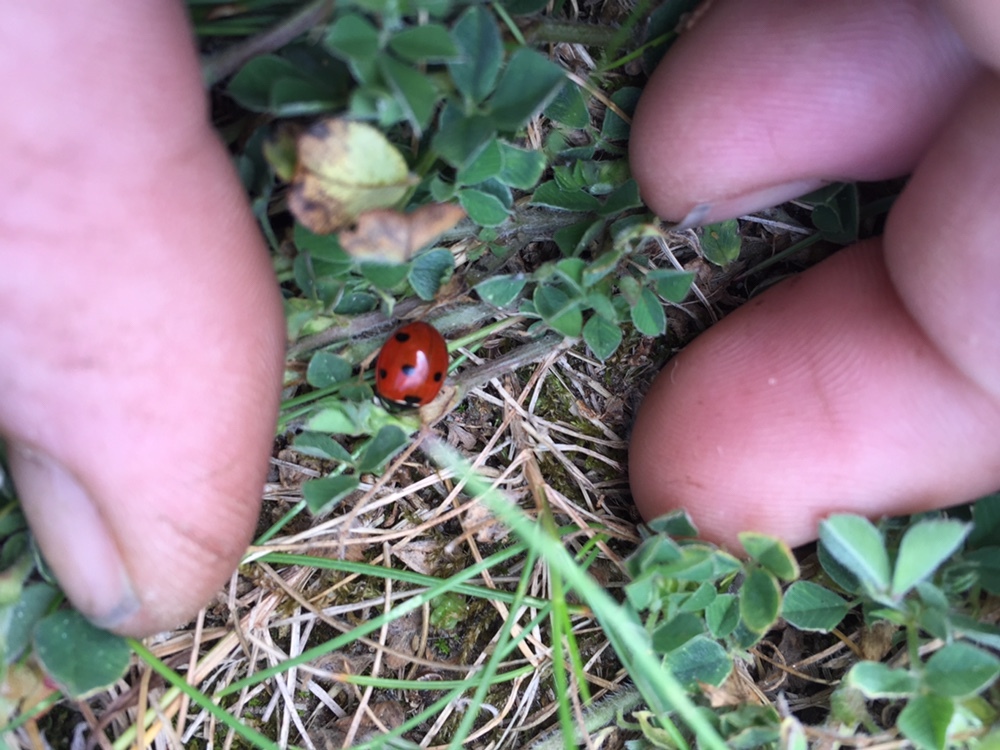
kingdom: Animalia
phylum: Arthropoda
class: Insecta
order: Coleoptera
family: Coccinellidae
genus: Coccinella
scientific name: Coccinella septempunctata
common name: Sevenspotted lady beetle
